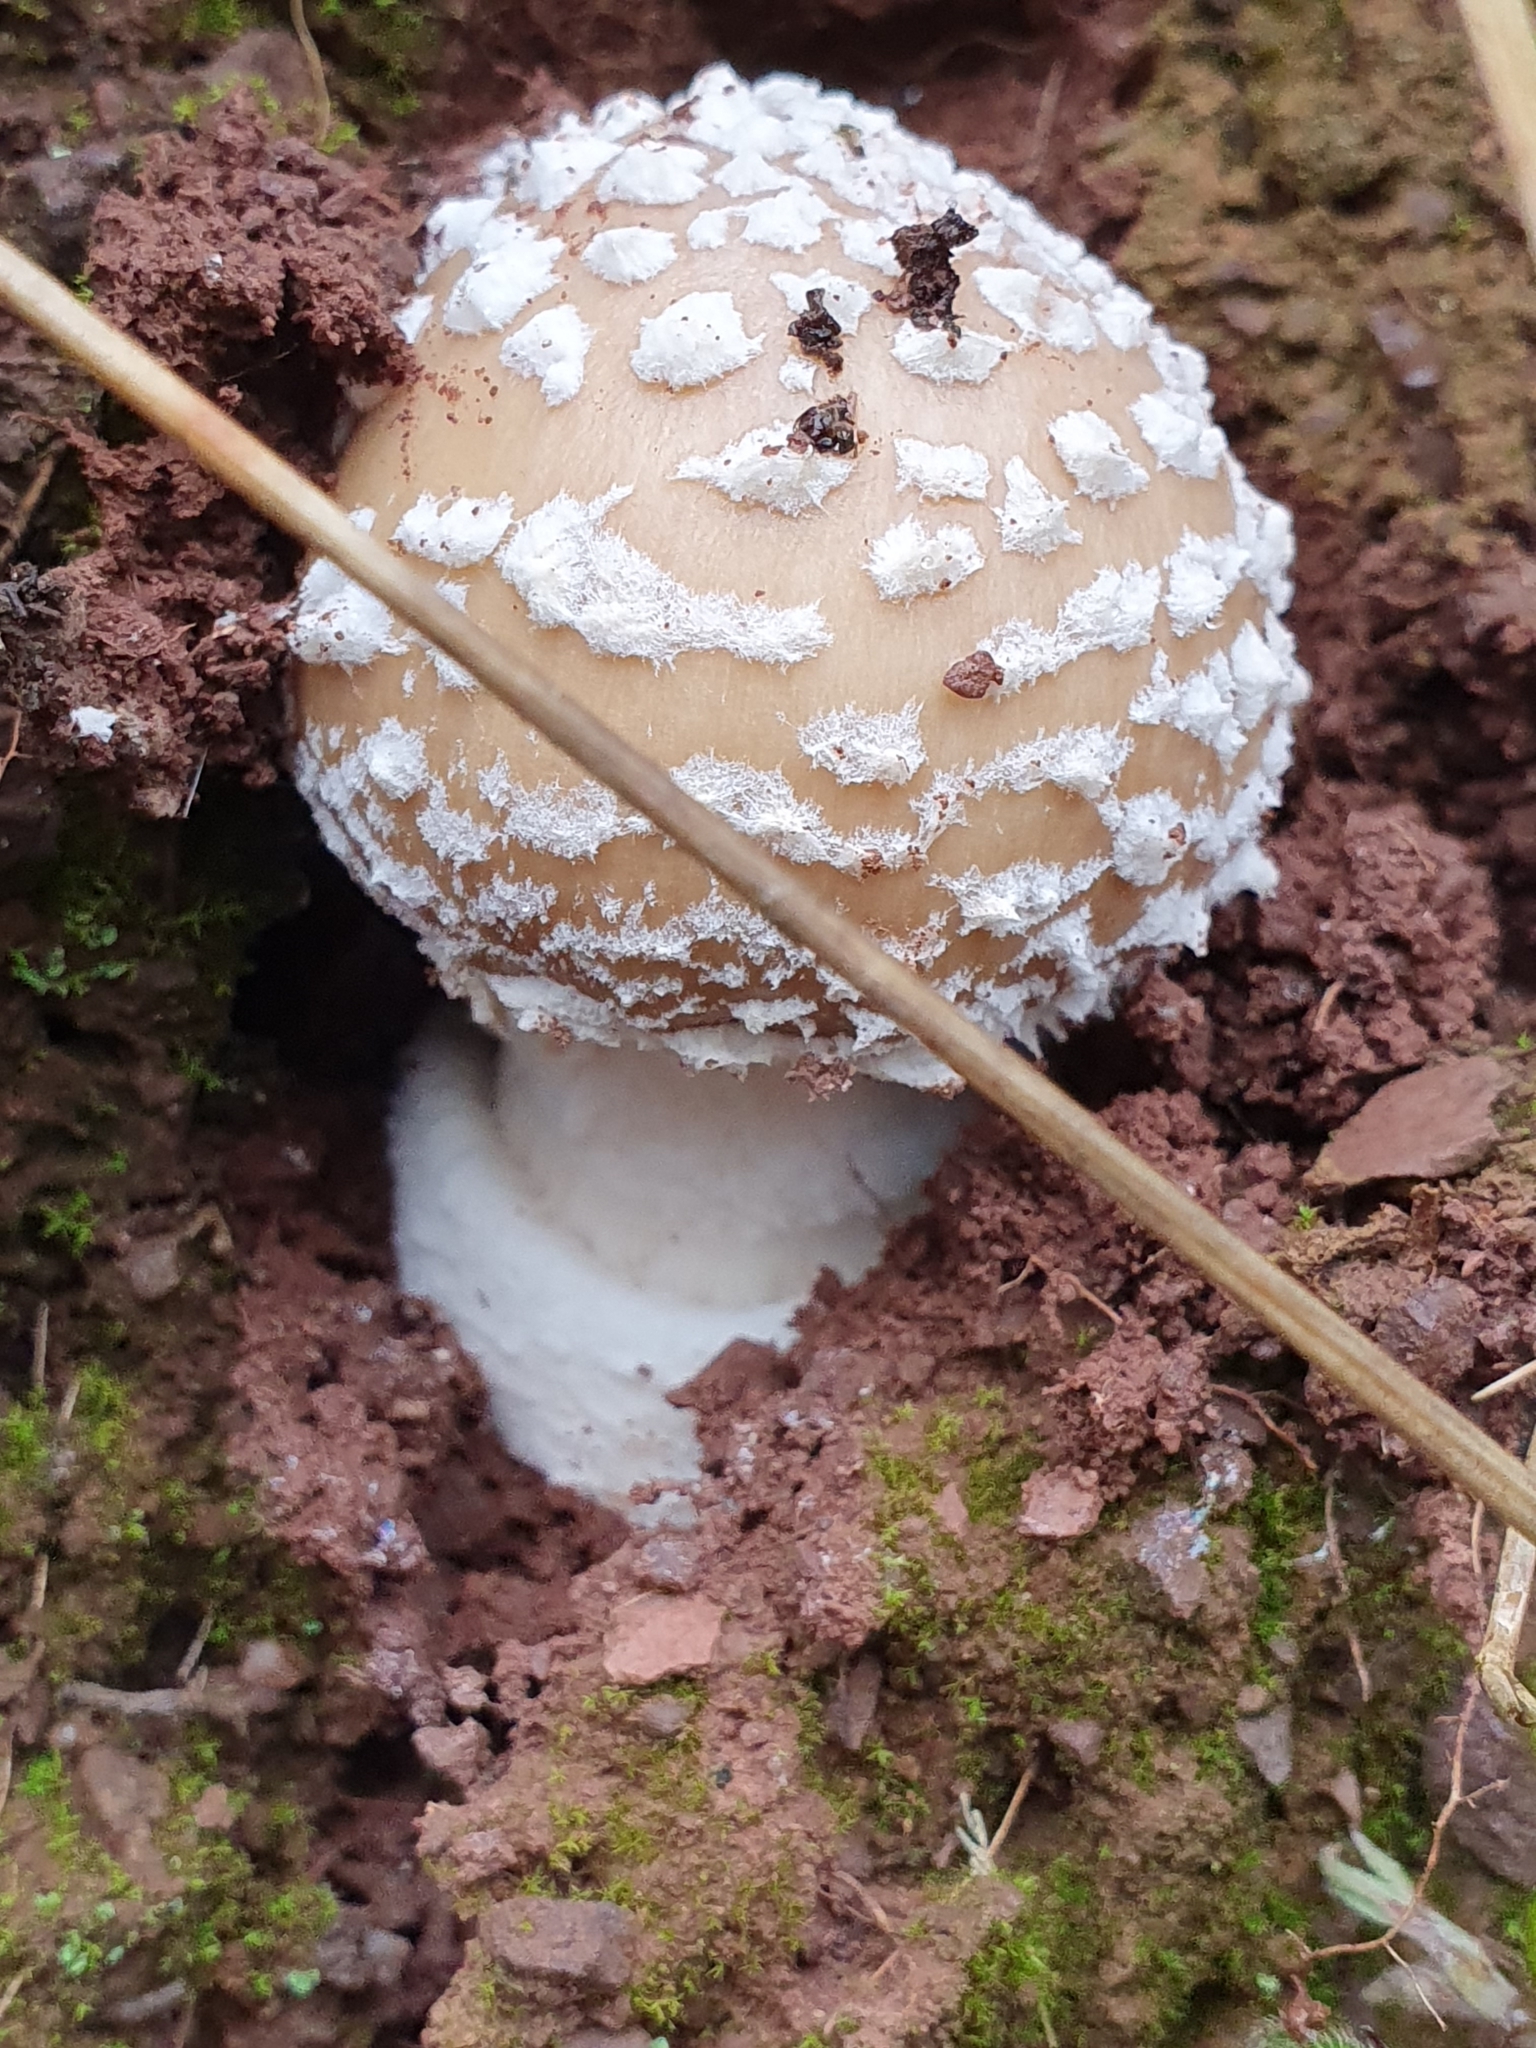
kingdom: Fungi
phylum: Basidiomycota
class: Agaricomycetes
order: Agaricales
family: Amanitaceae
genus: Amanita
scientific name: Amanita pantherina
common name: Panthercap
